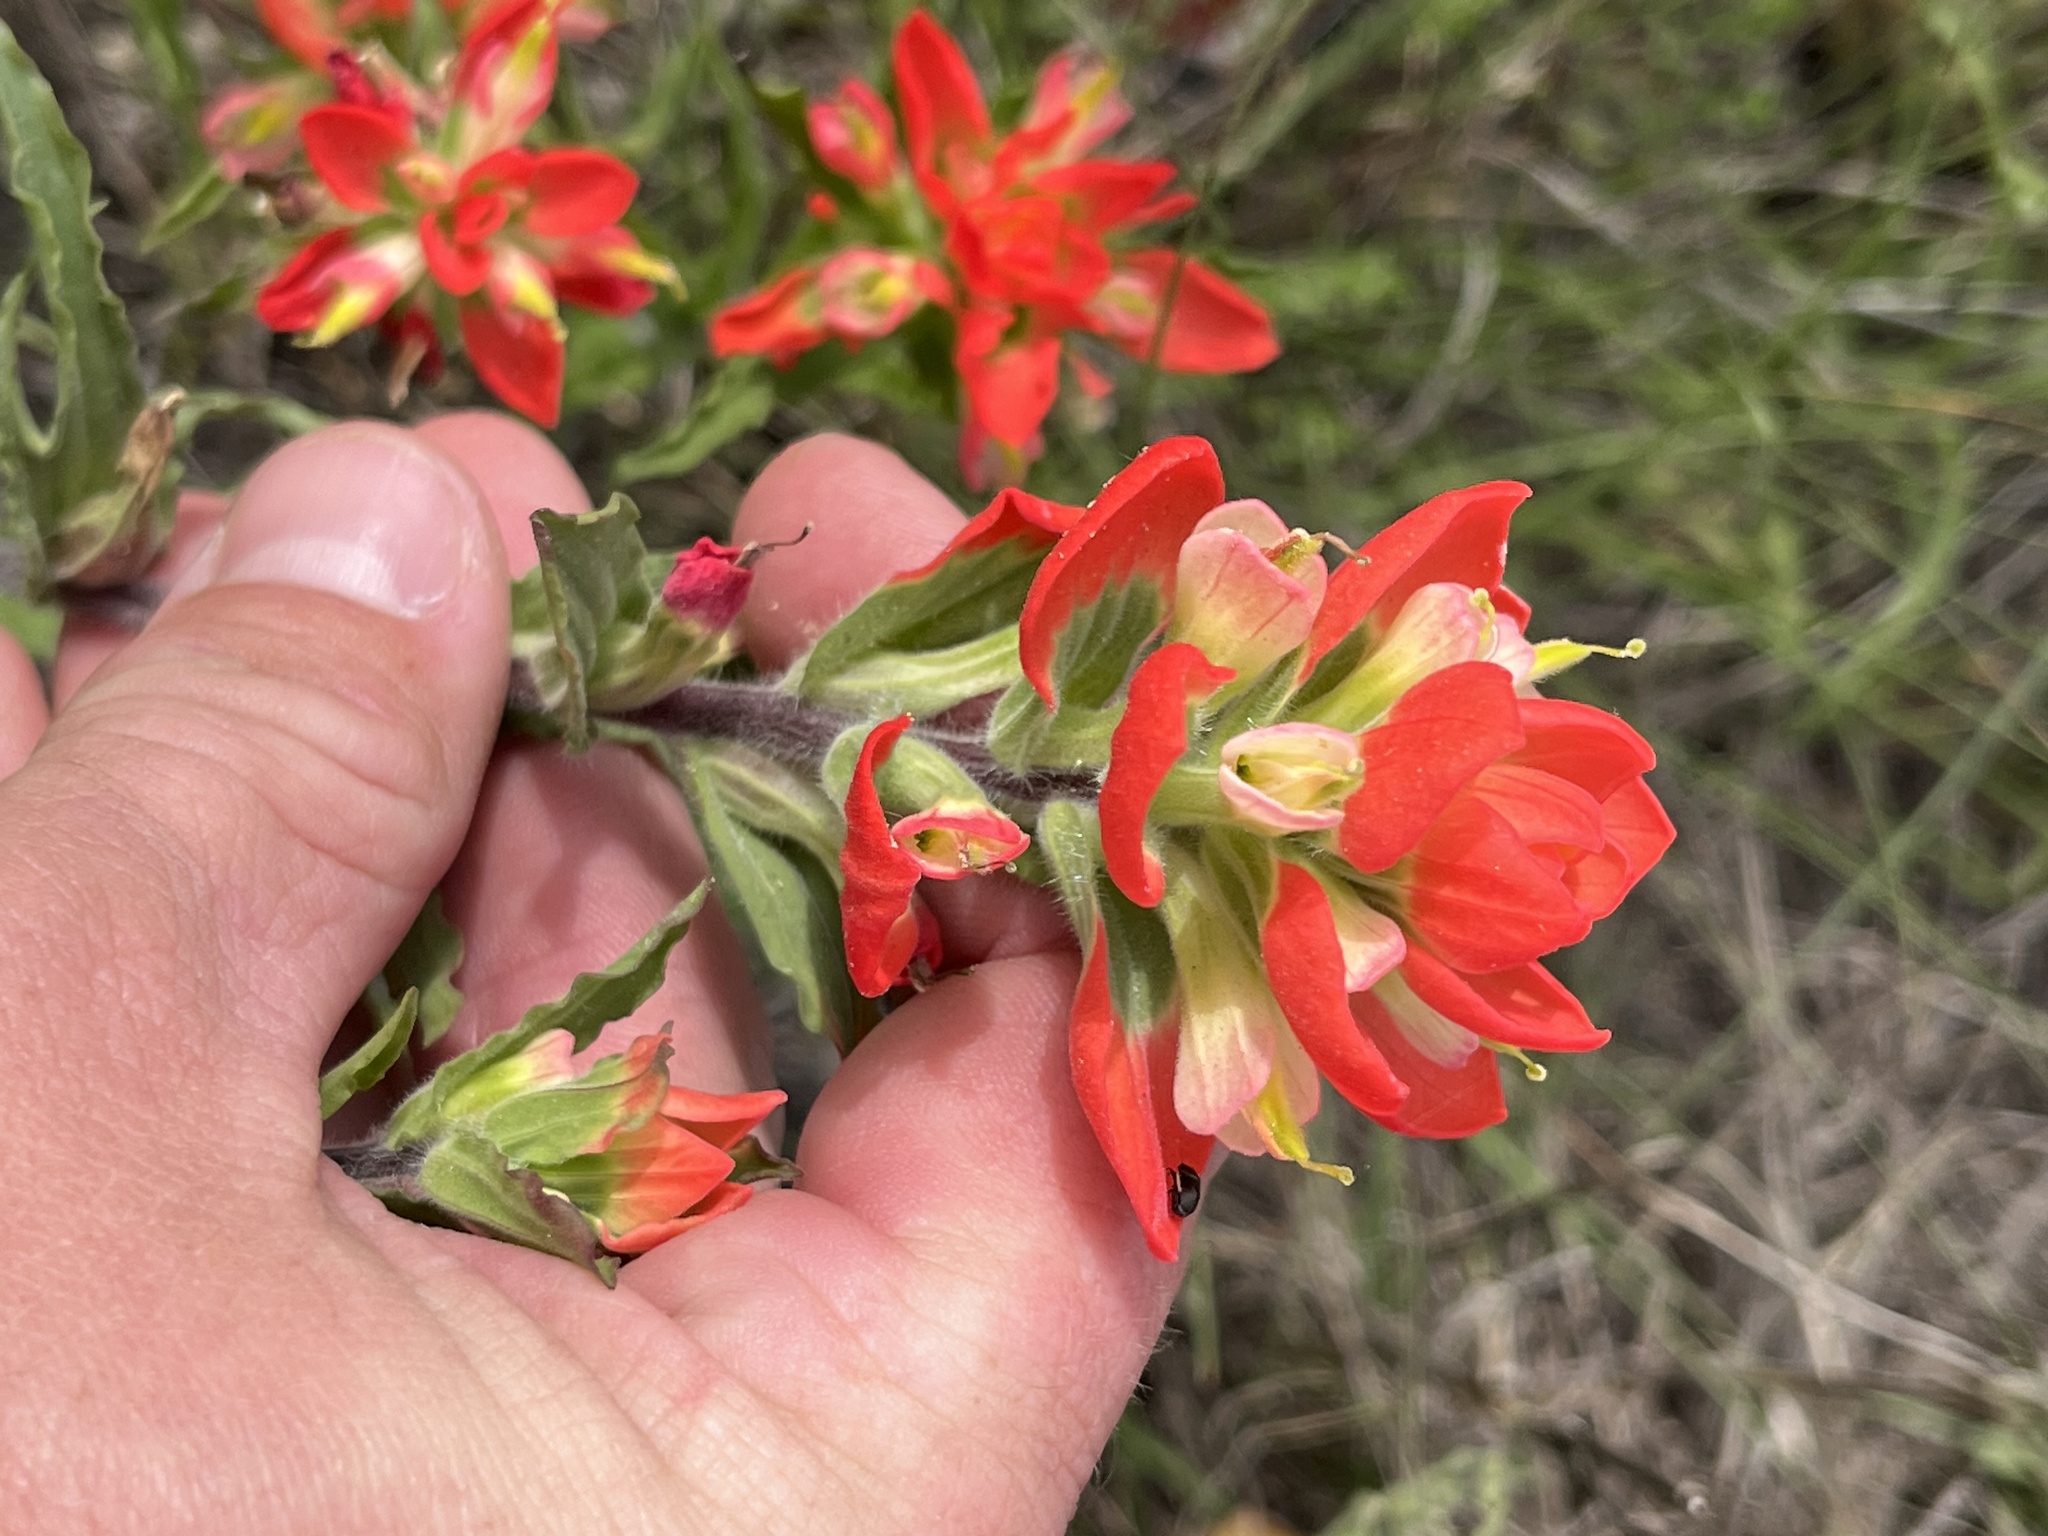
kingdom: Plantae
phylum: Tracheophyta
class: Magnoliopsida
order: Lamiales
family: Orobanchaceae
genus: Castilleja
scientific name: Castilleja indivisa
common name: Texas paintbrush
